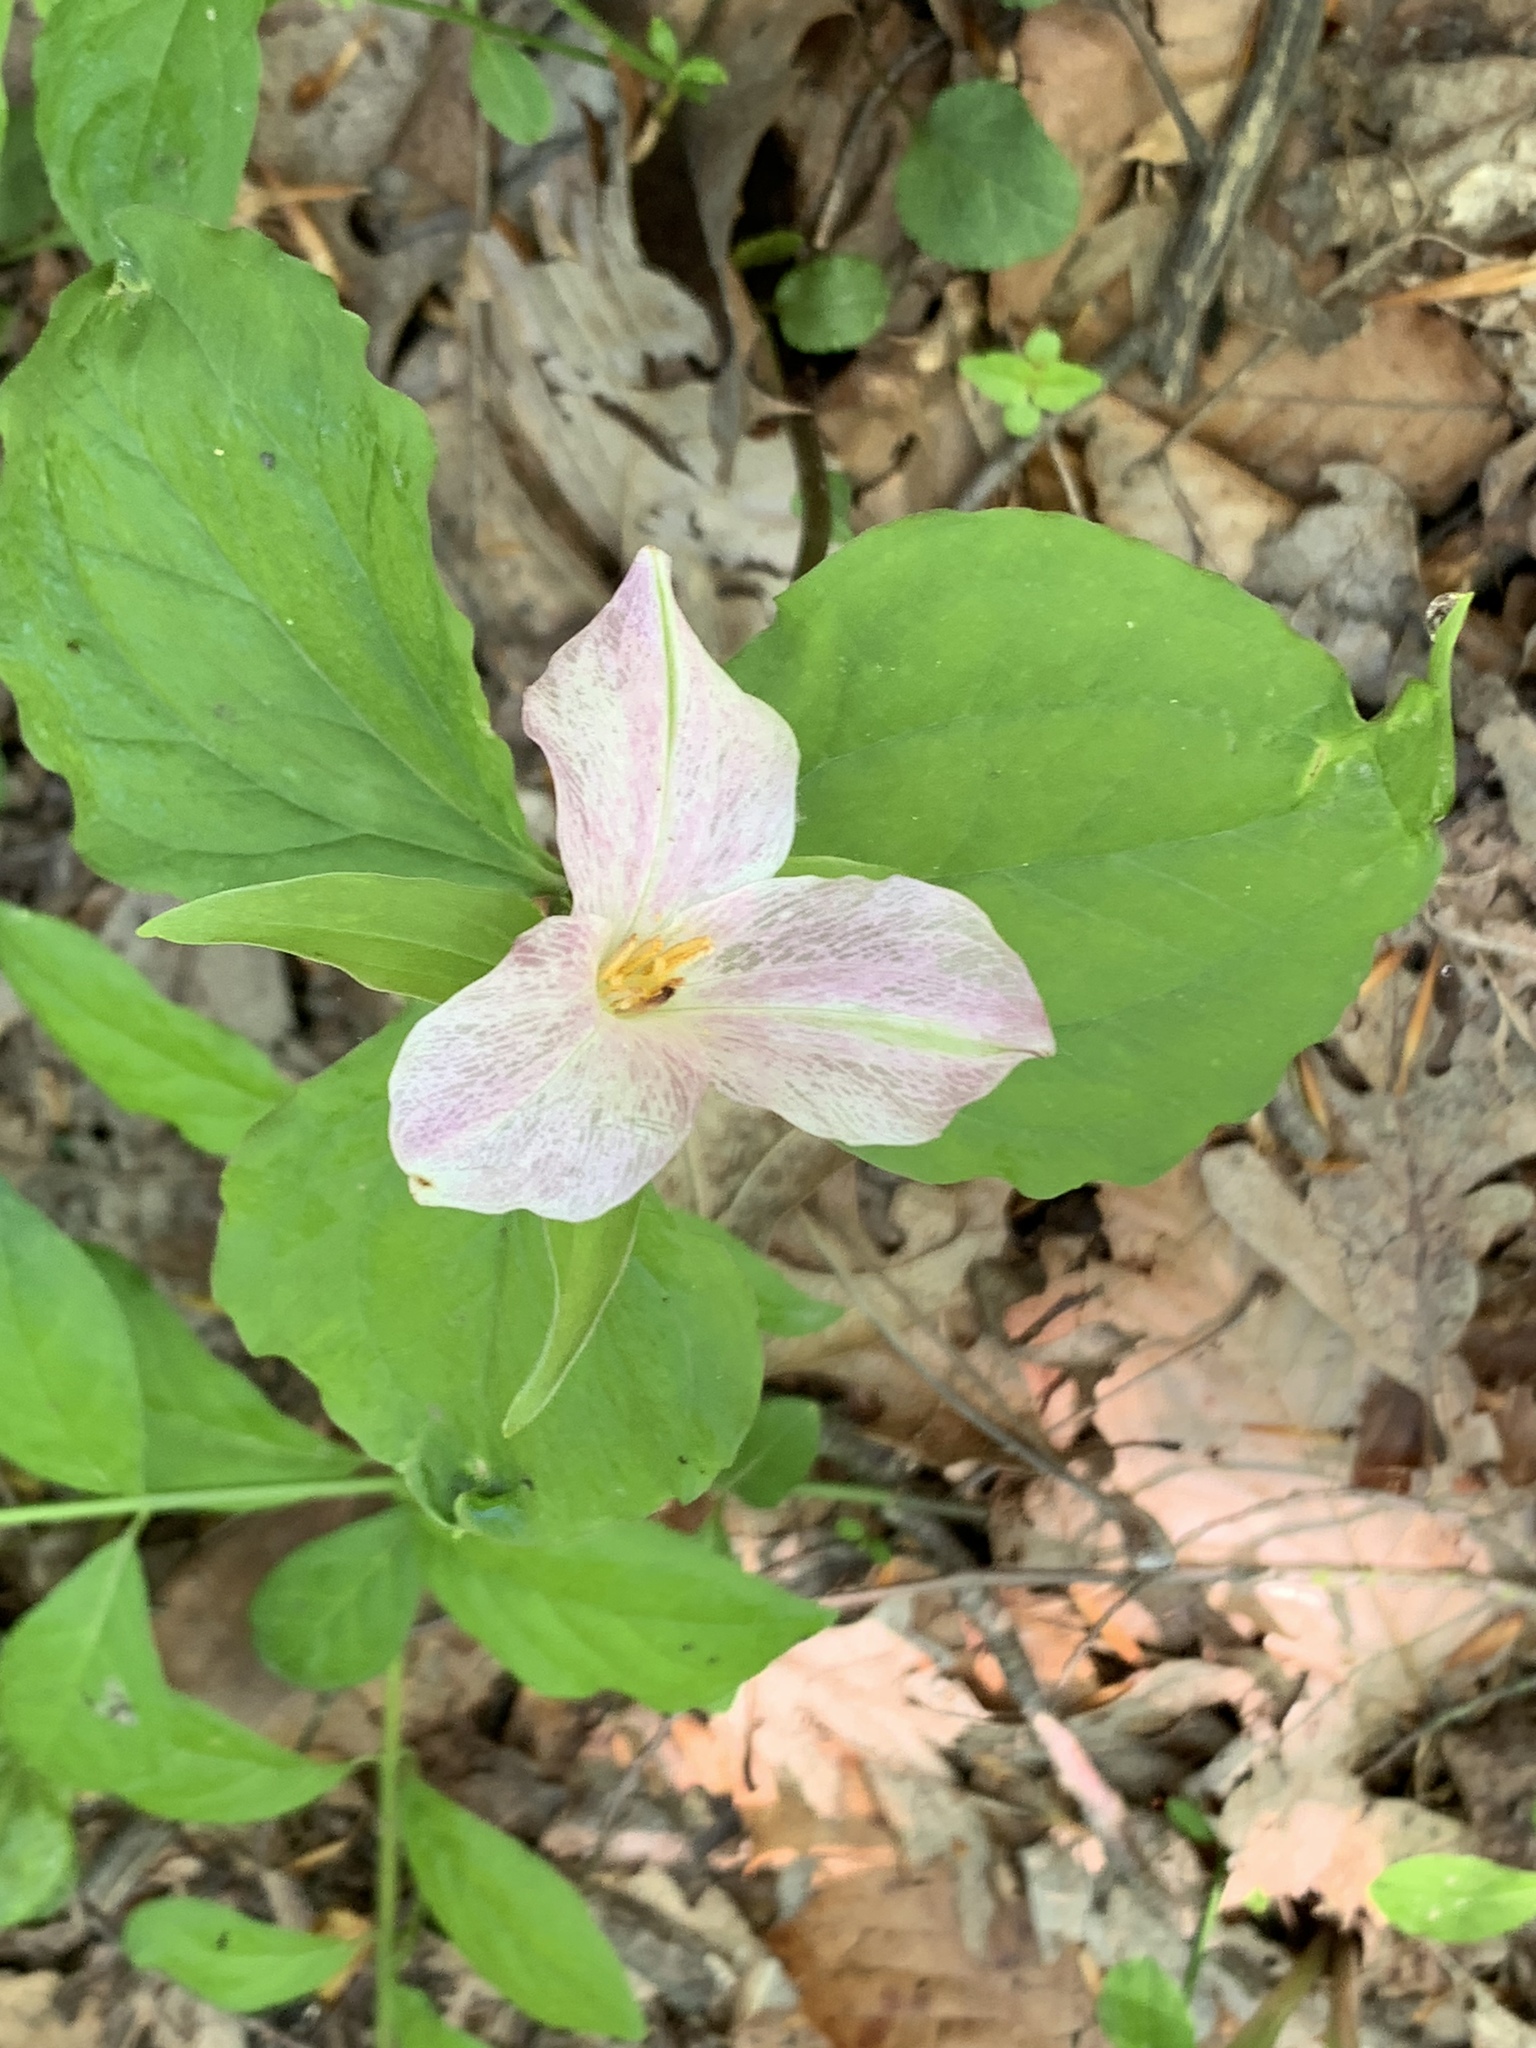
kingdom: Plantae
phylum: Tracheophyta
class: Liliopsida
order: Liliales
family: Melanthiaceae
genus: Trillium
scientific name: Trillium grandiflorum
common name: Great white trillium
